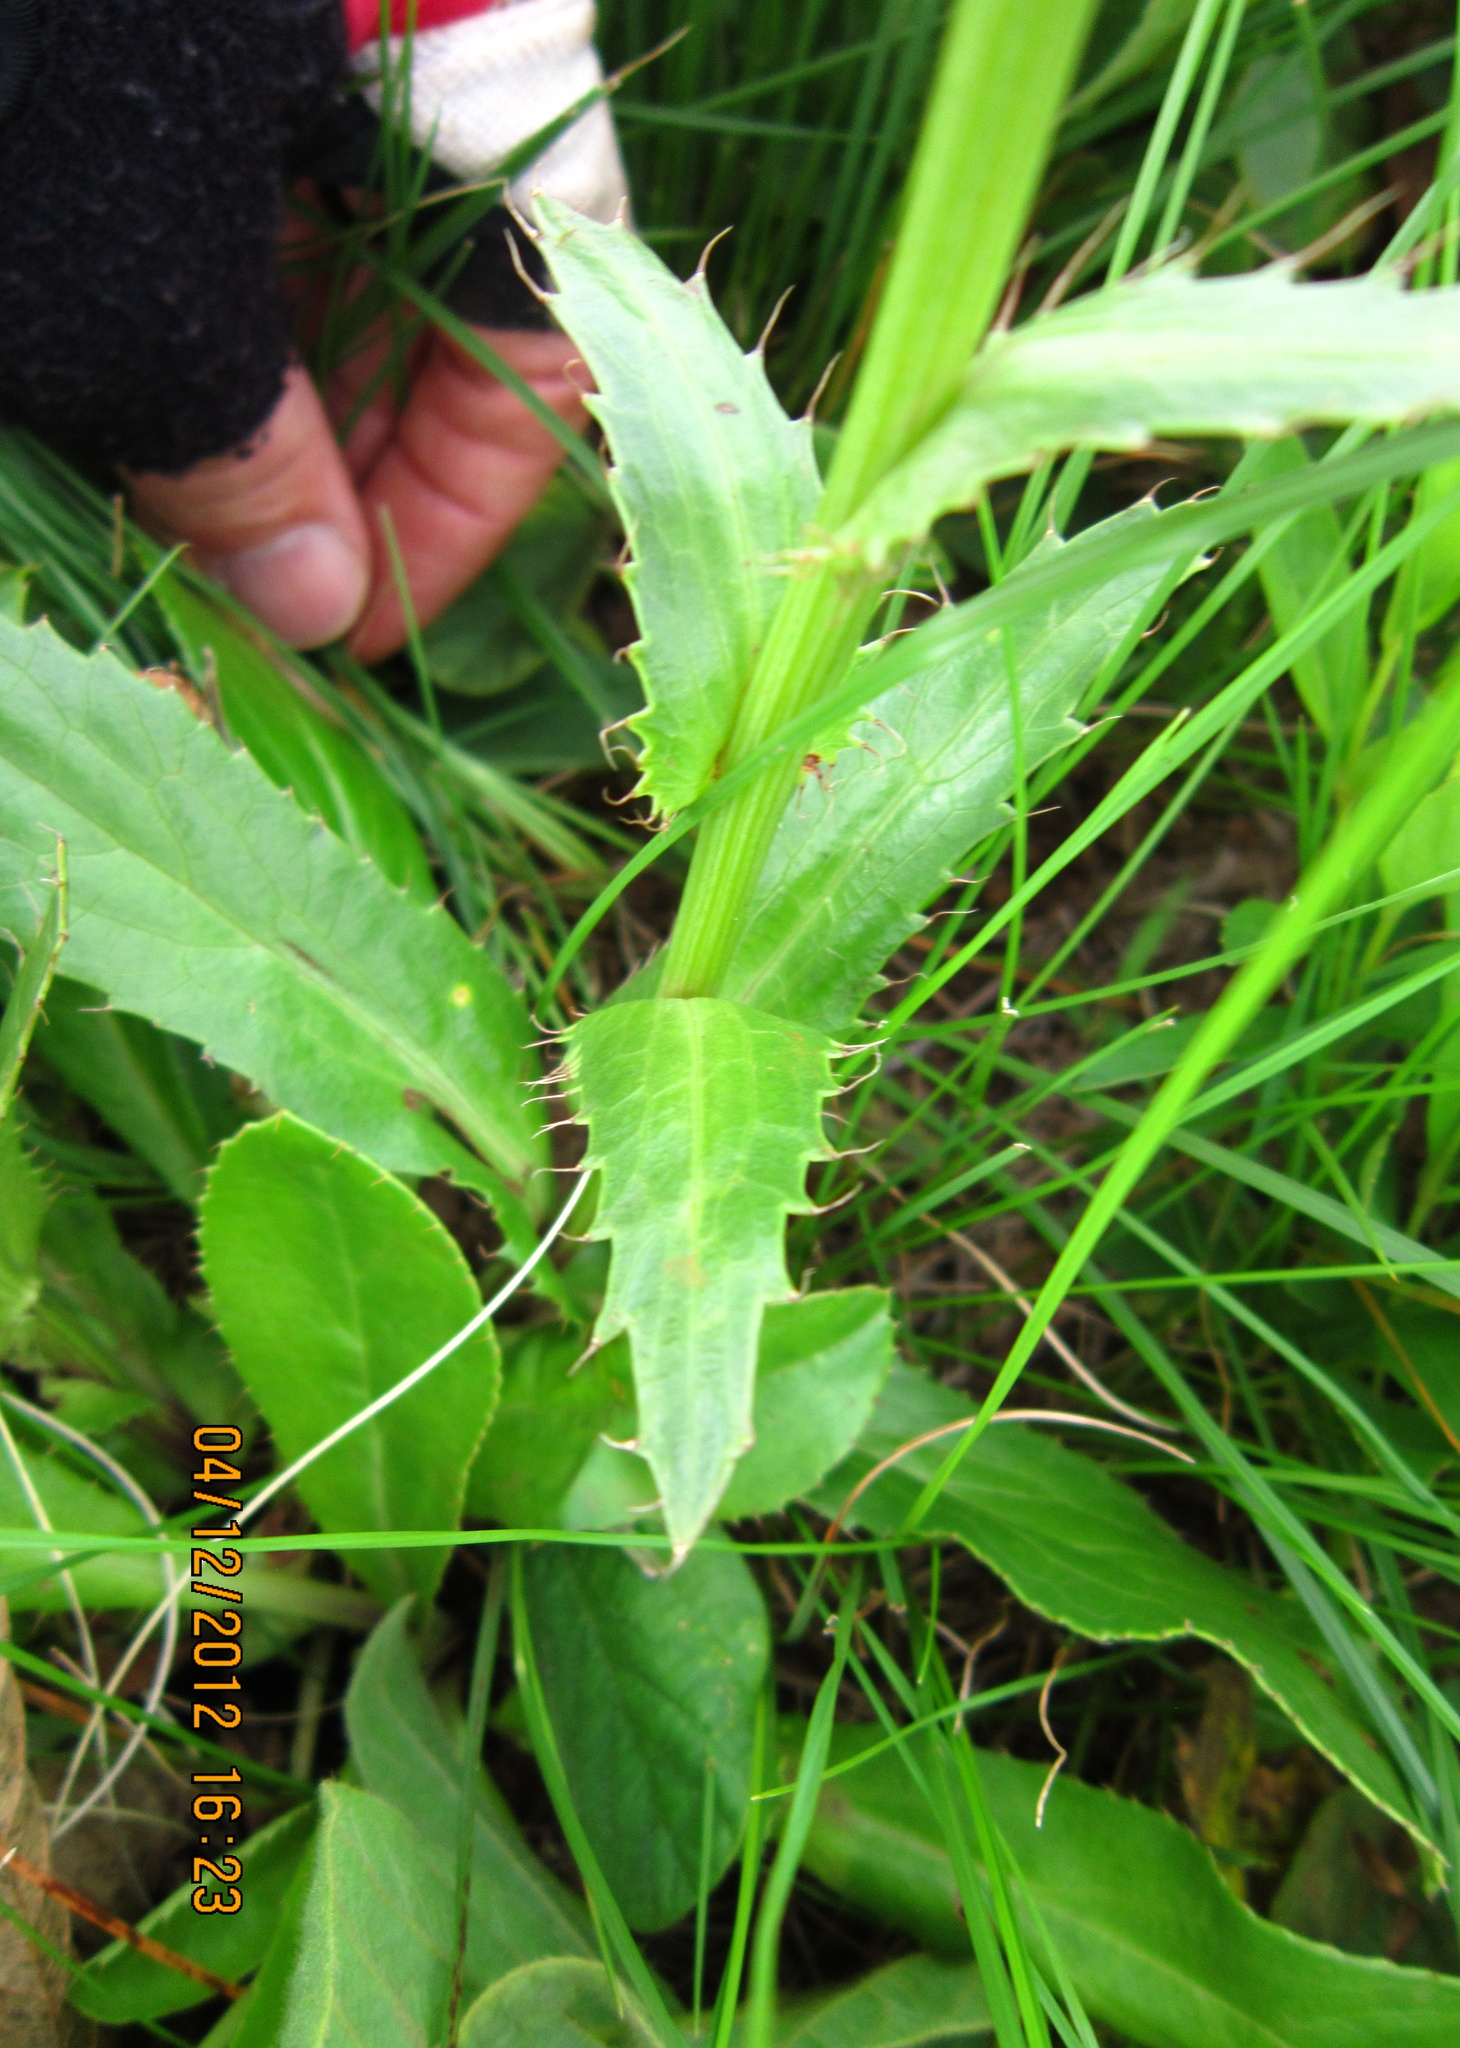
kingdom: Plantae
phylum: Tracheophyta
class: Magnoliopsida
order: Apiales
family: Apiaceae
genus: Alepidea
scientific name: Alepidea peduncularis
